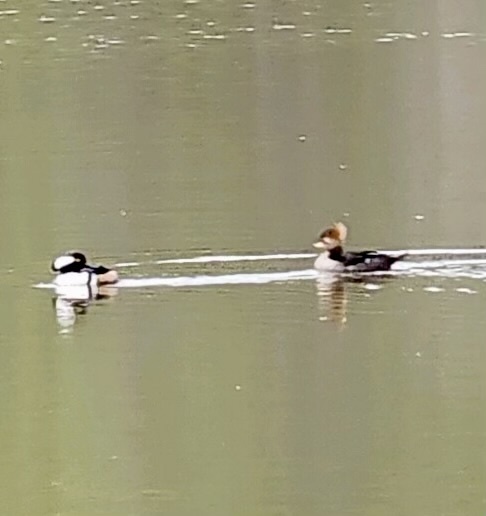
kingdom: Animalia
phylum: Chordata
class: Aves
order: Anseriformes
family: Anatidae
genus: Lophodytes
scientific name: Lophodytes cucullatus
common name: Hooded merganser
